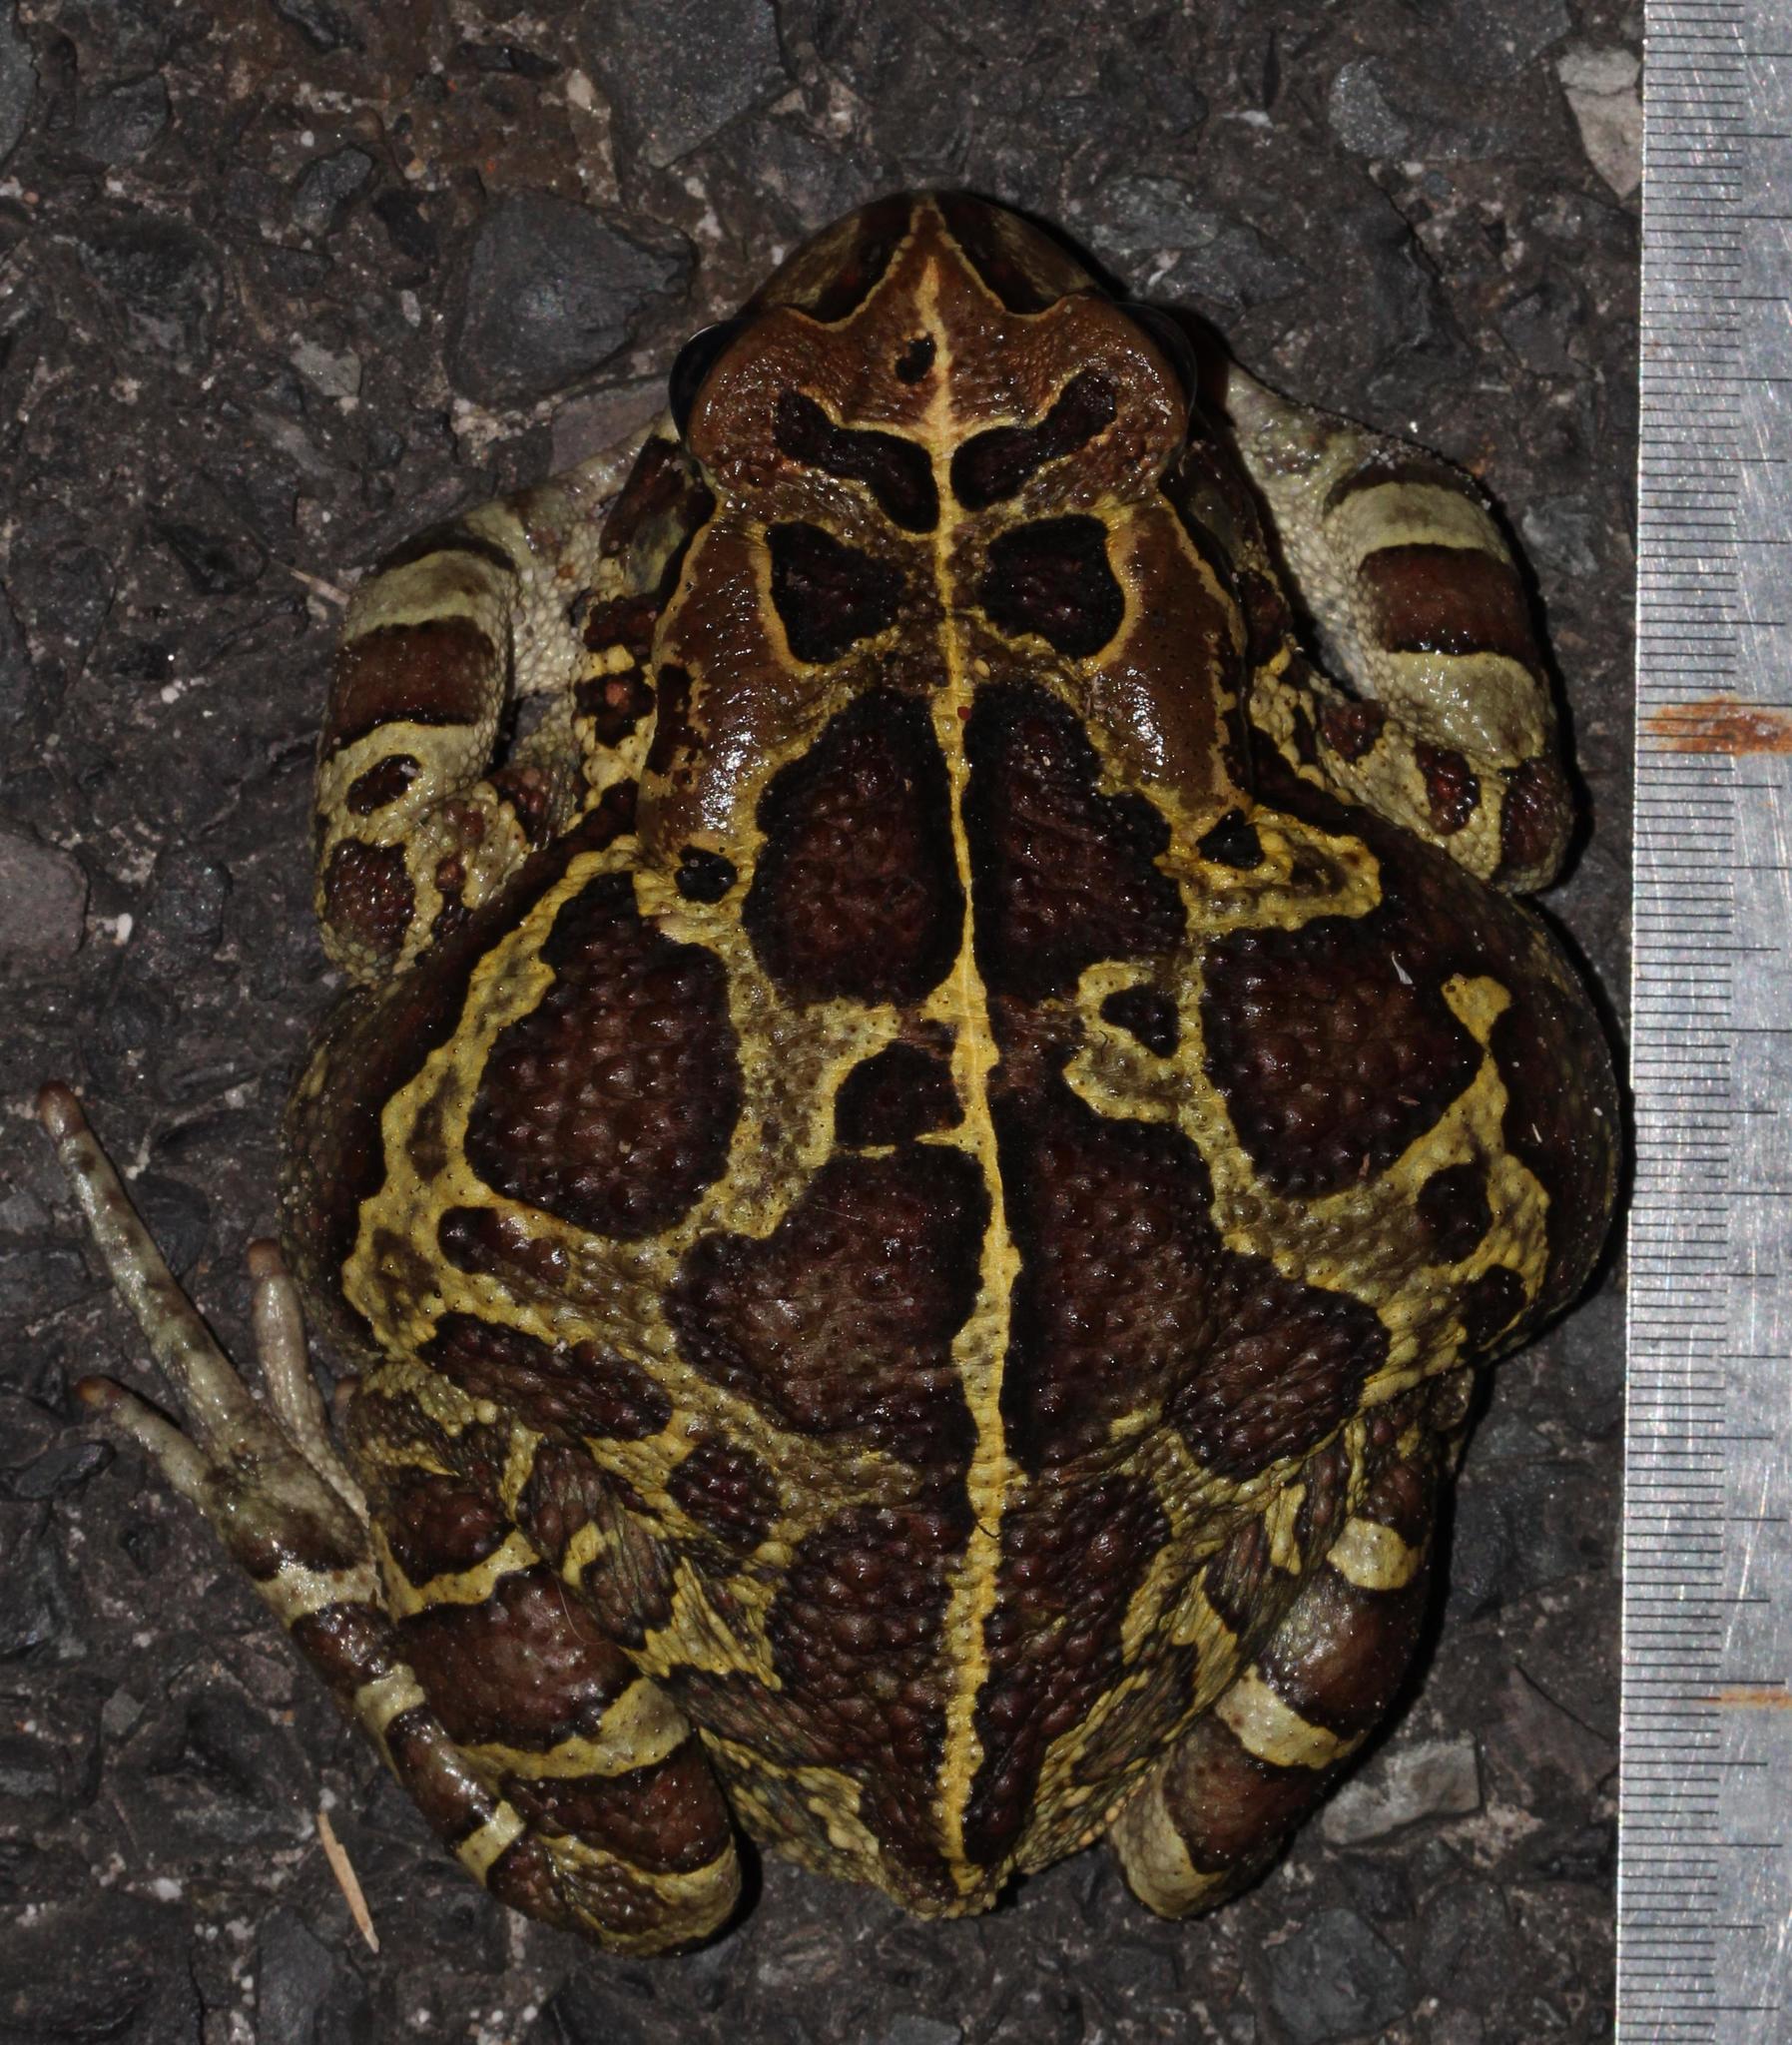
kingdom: Animalia
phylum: Chordata
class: Amphibia
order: Anura
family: Bufonidae
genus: Sclerophrys
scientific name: Sclerophrys pantherina
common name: Panther toad
